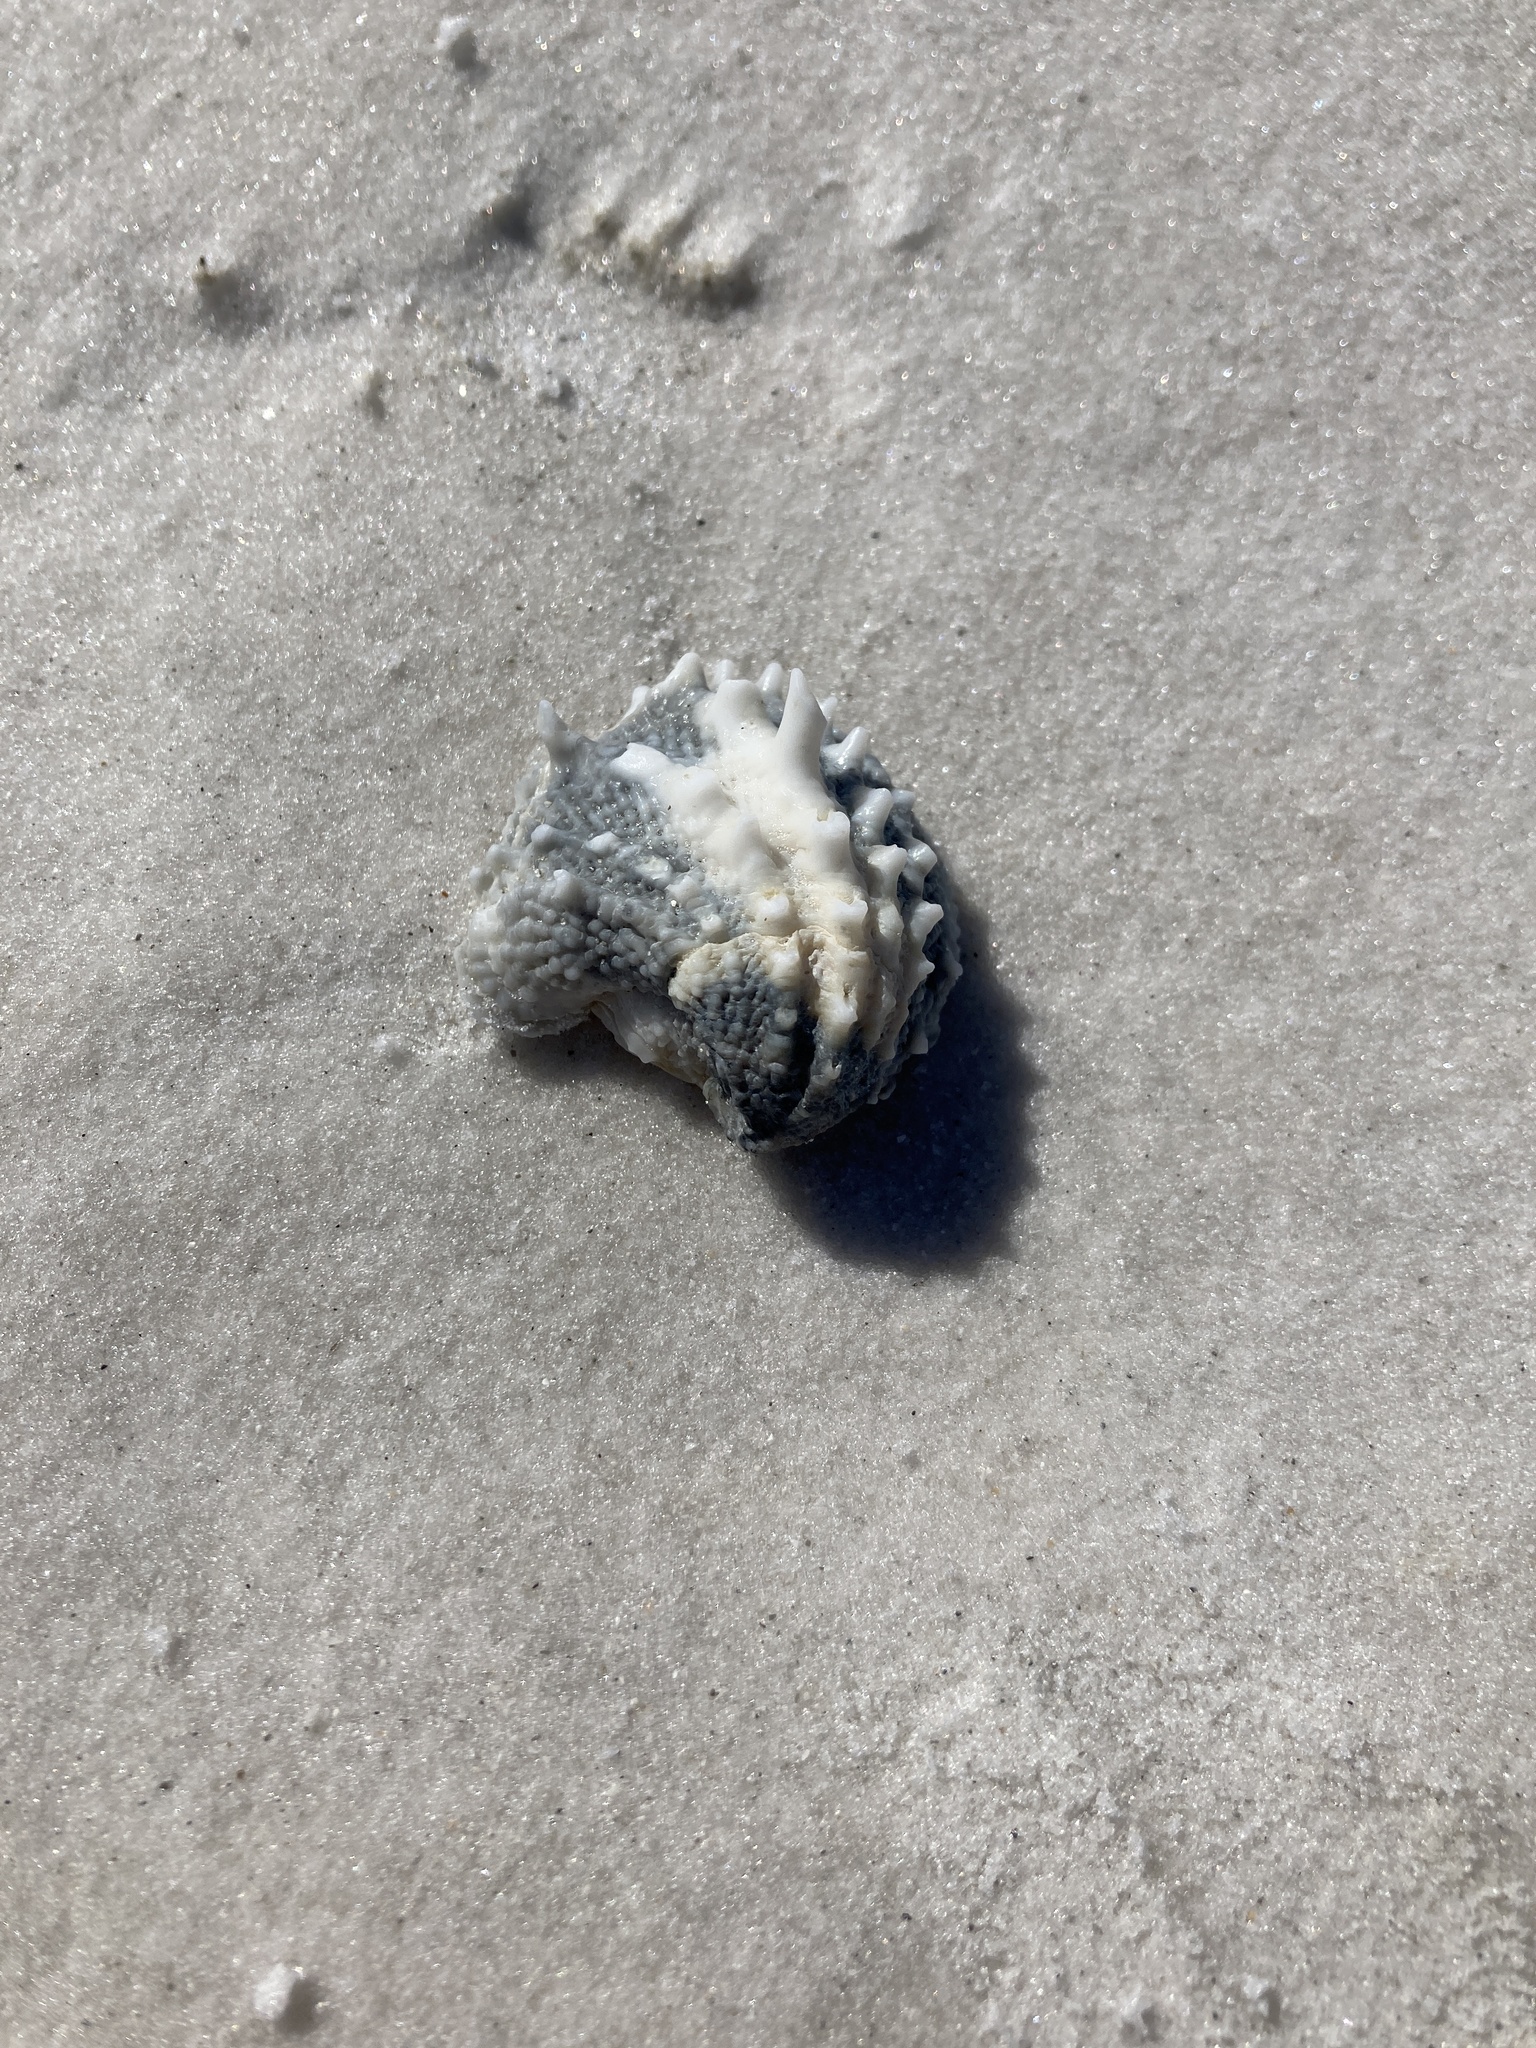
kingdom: Animalia
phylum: Mollusca
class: Bivalvia
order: Venerida
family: Chamidae
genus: Arcinella
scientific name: Arcinella cornuta
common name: Florida spiny jewel box
